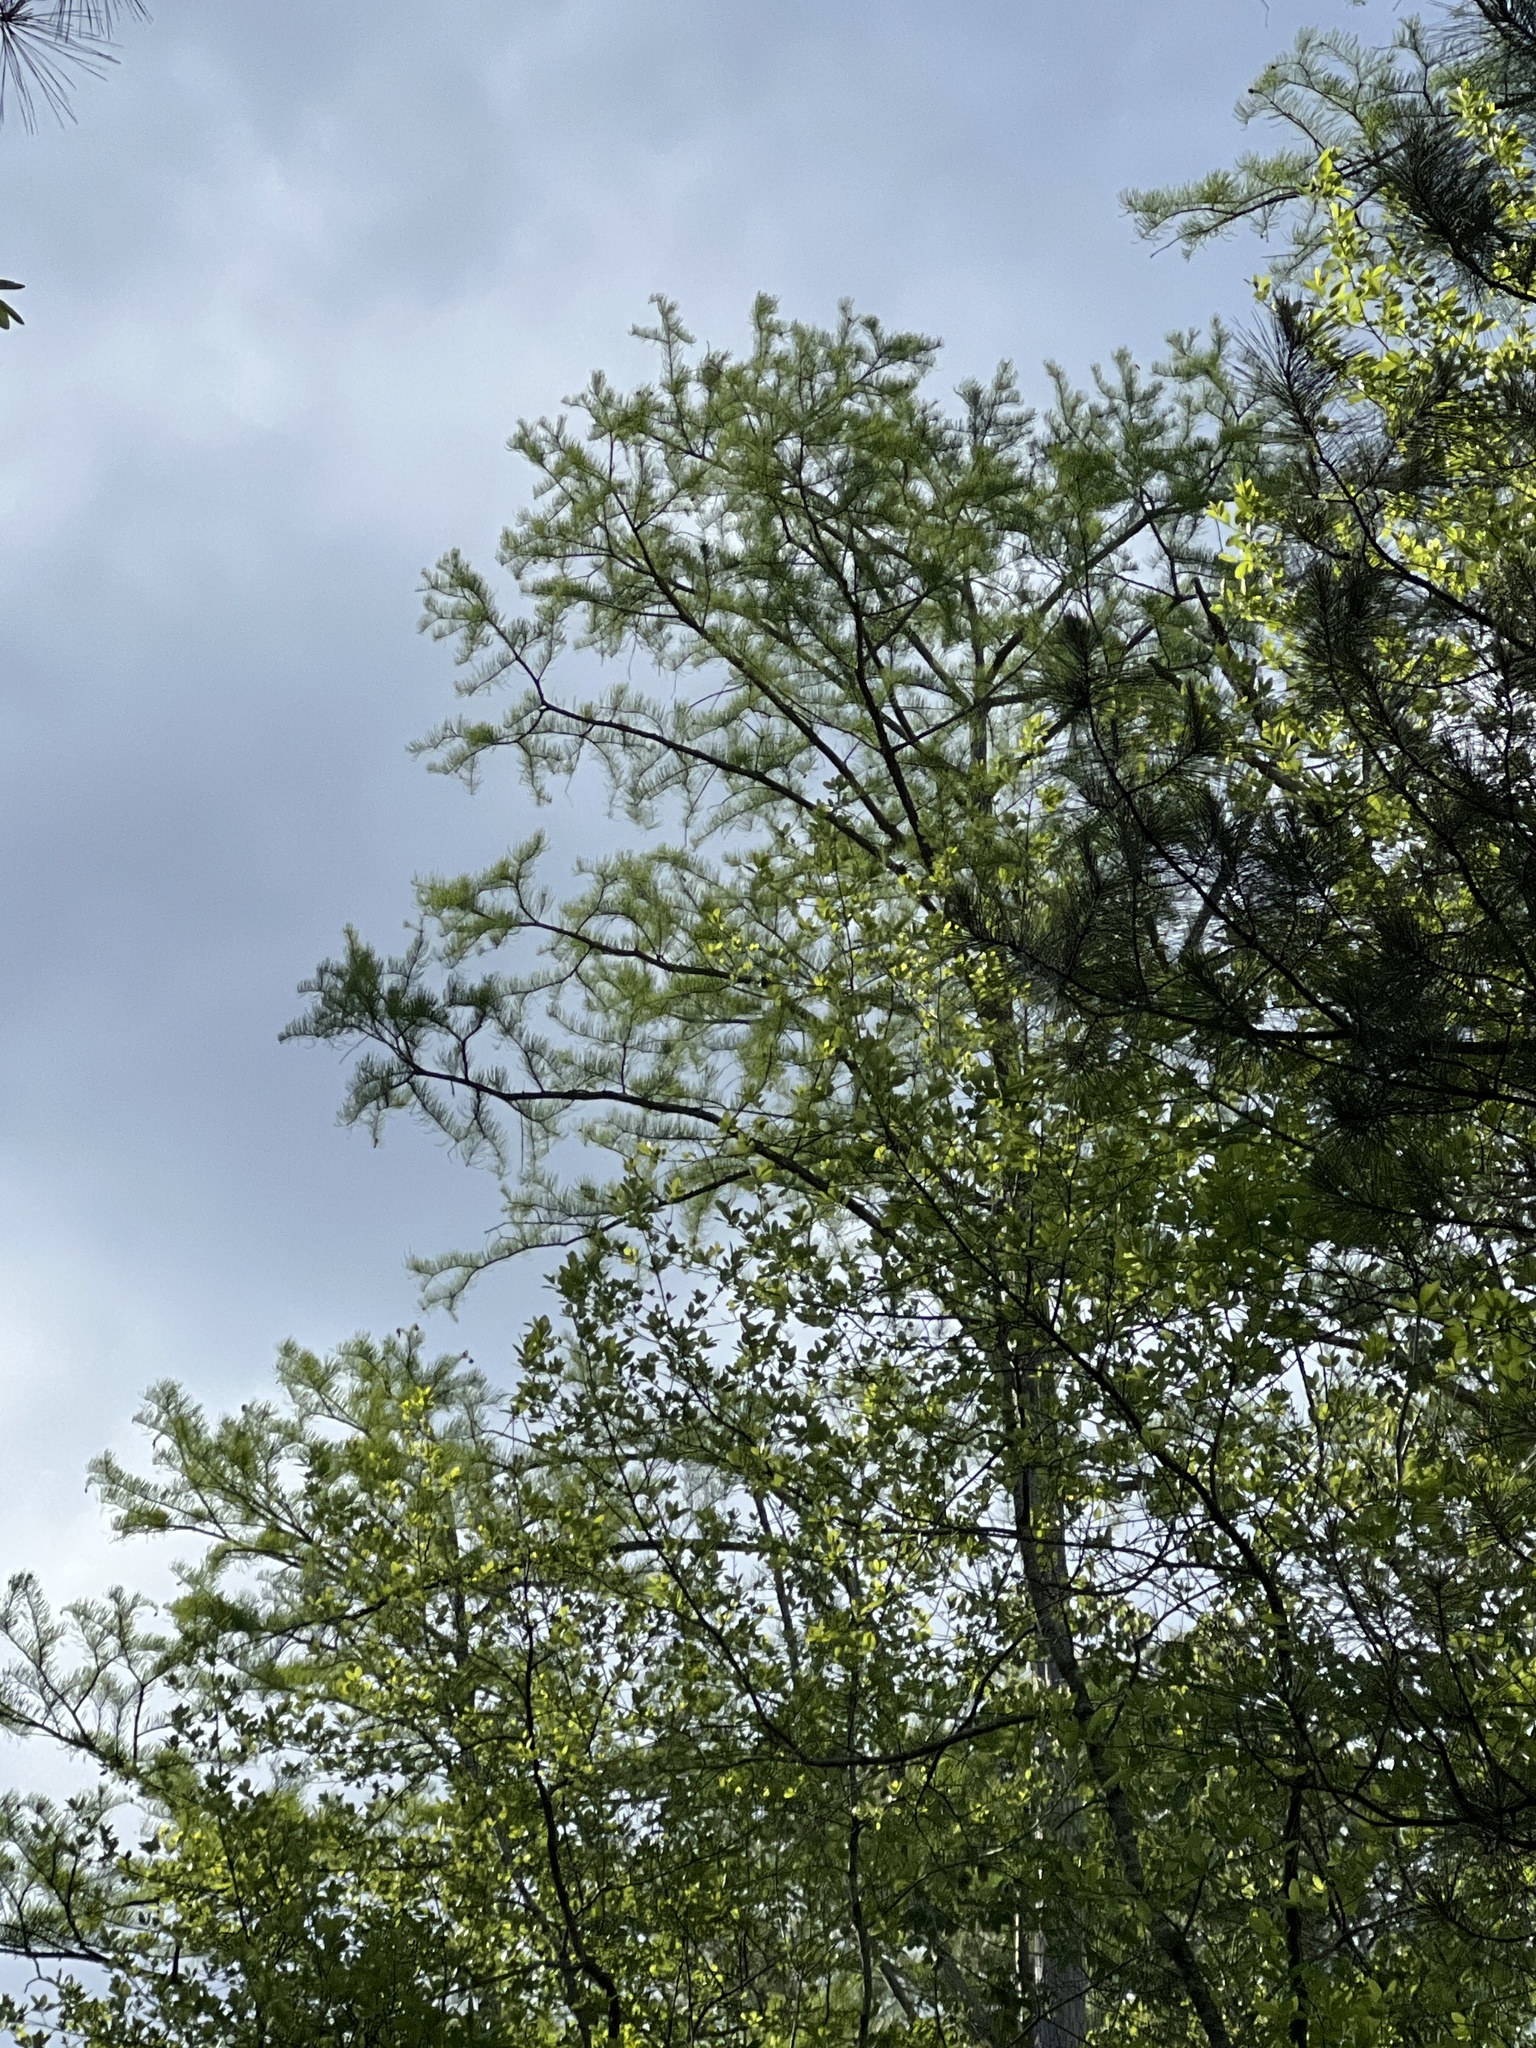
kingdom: Plantae
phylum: Tracheophyta
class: Pinopsida
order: Pinales
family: Cupressaceae
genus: Taxodium
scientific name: Taxodium distichum
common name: Bald cypress
